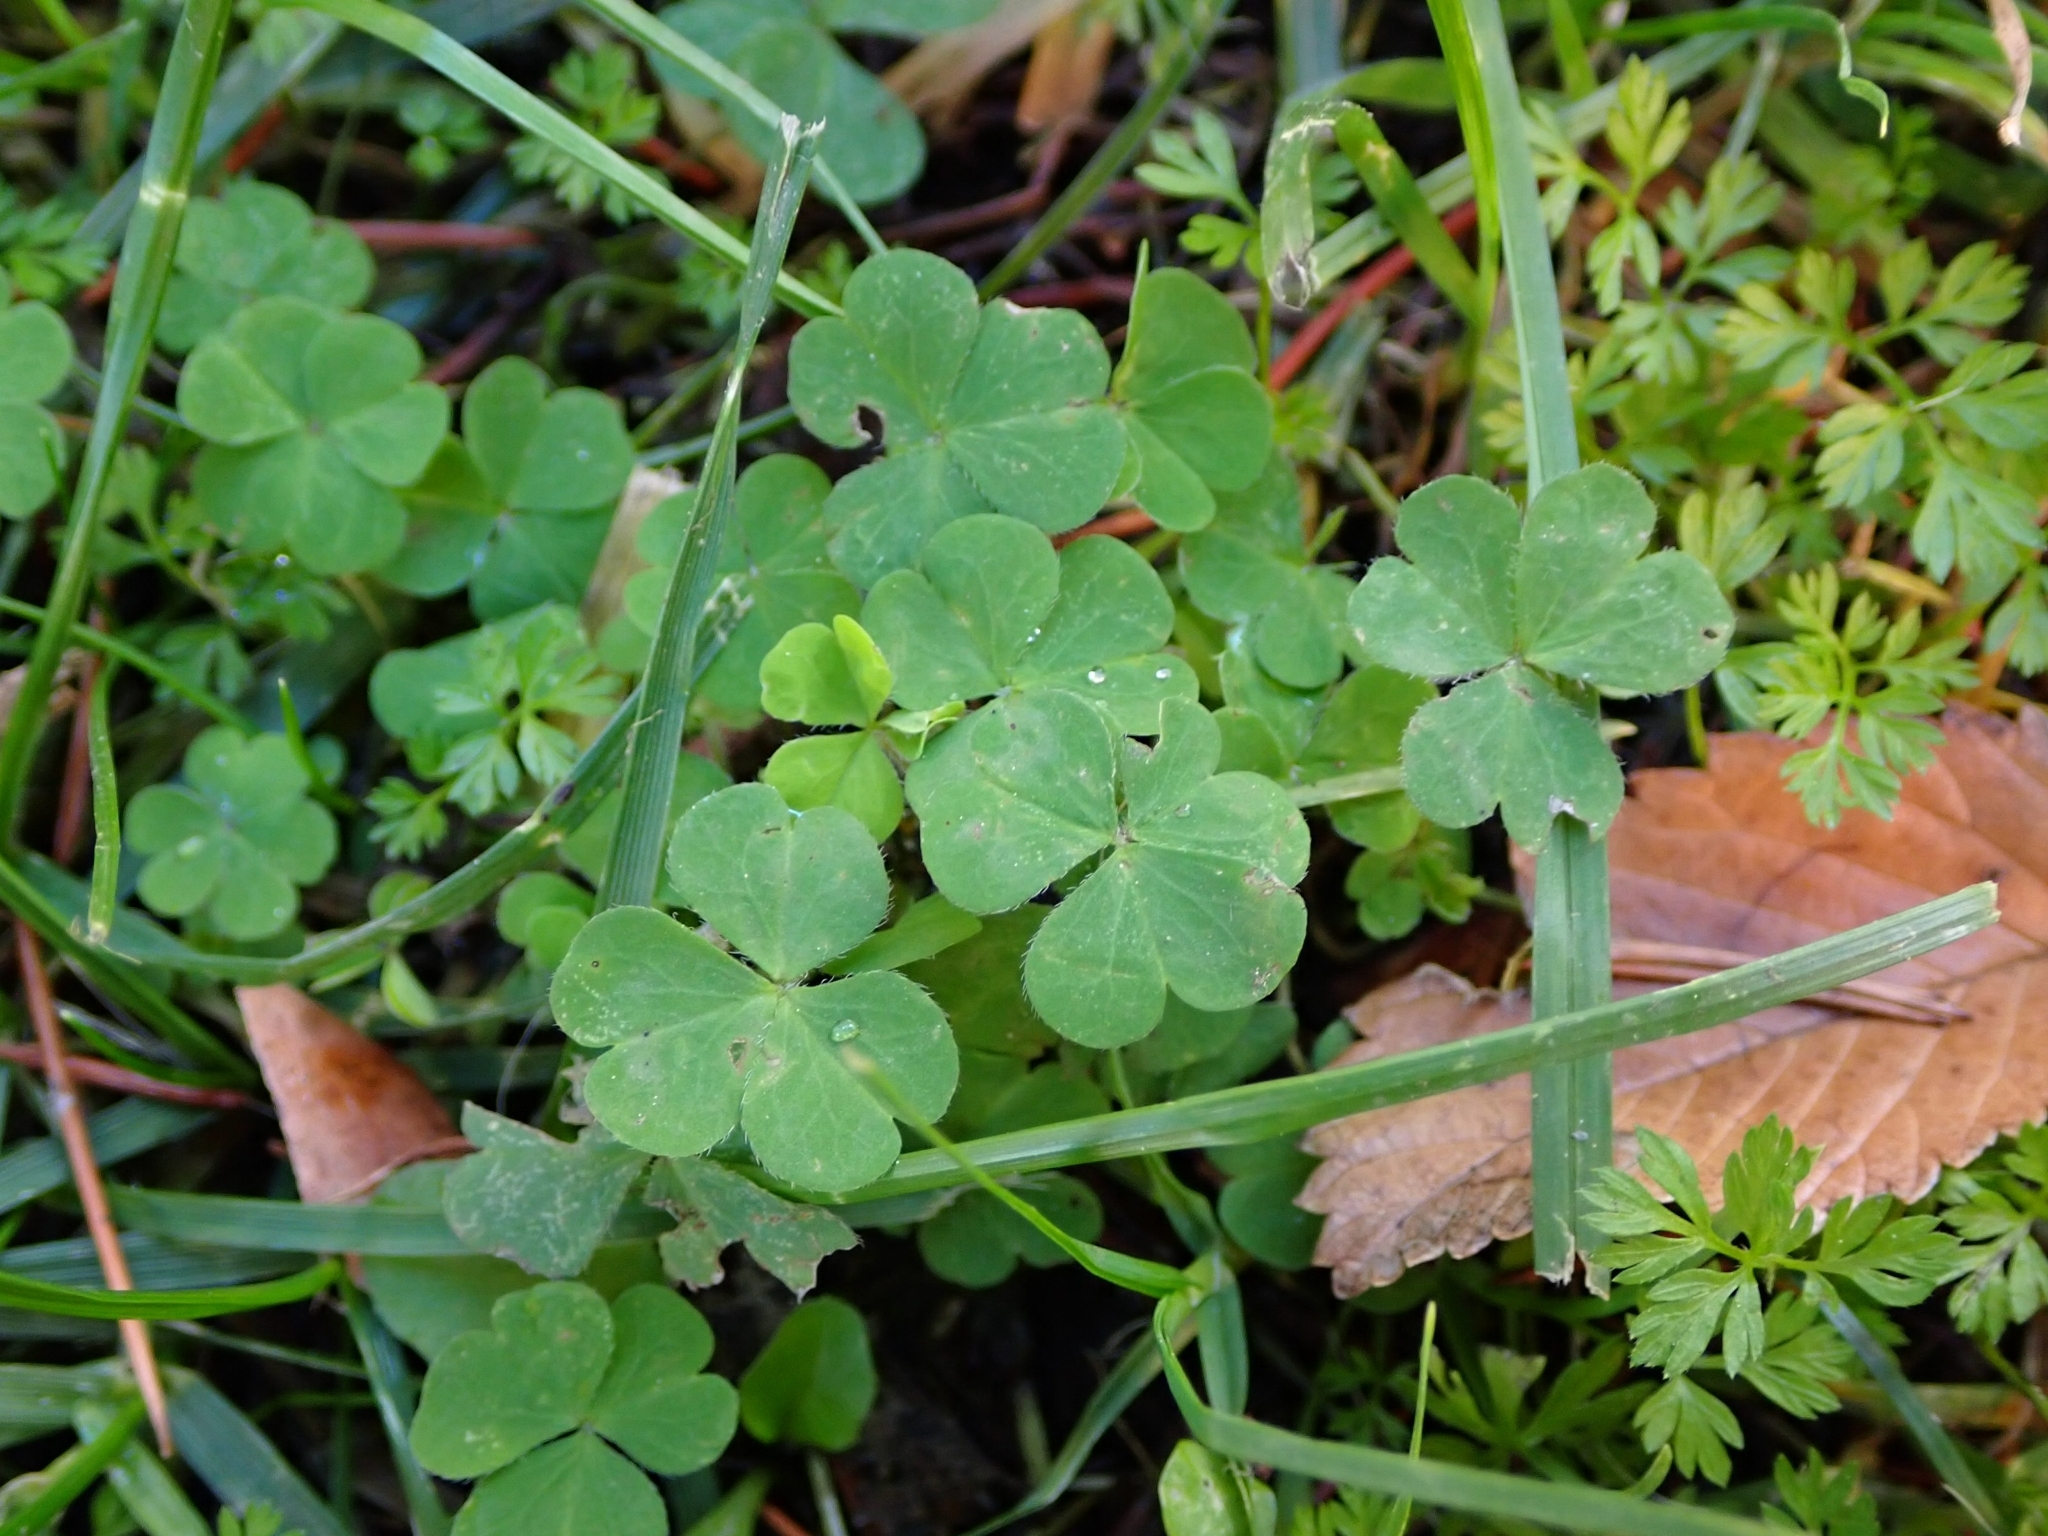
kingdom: Plantae
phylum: Tracheophyta
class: Magnoliopsida
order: Oxalidales
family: Oxalidaceae
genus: Oxalis
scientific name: Oxalis corniculata
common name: Procumbent yellow-sorrel
